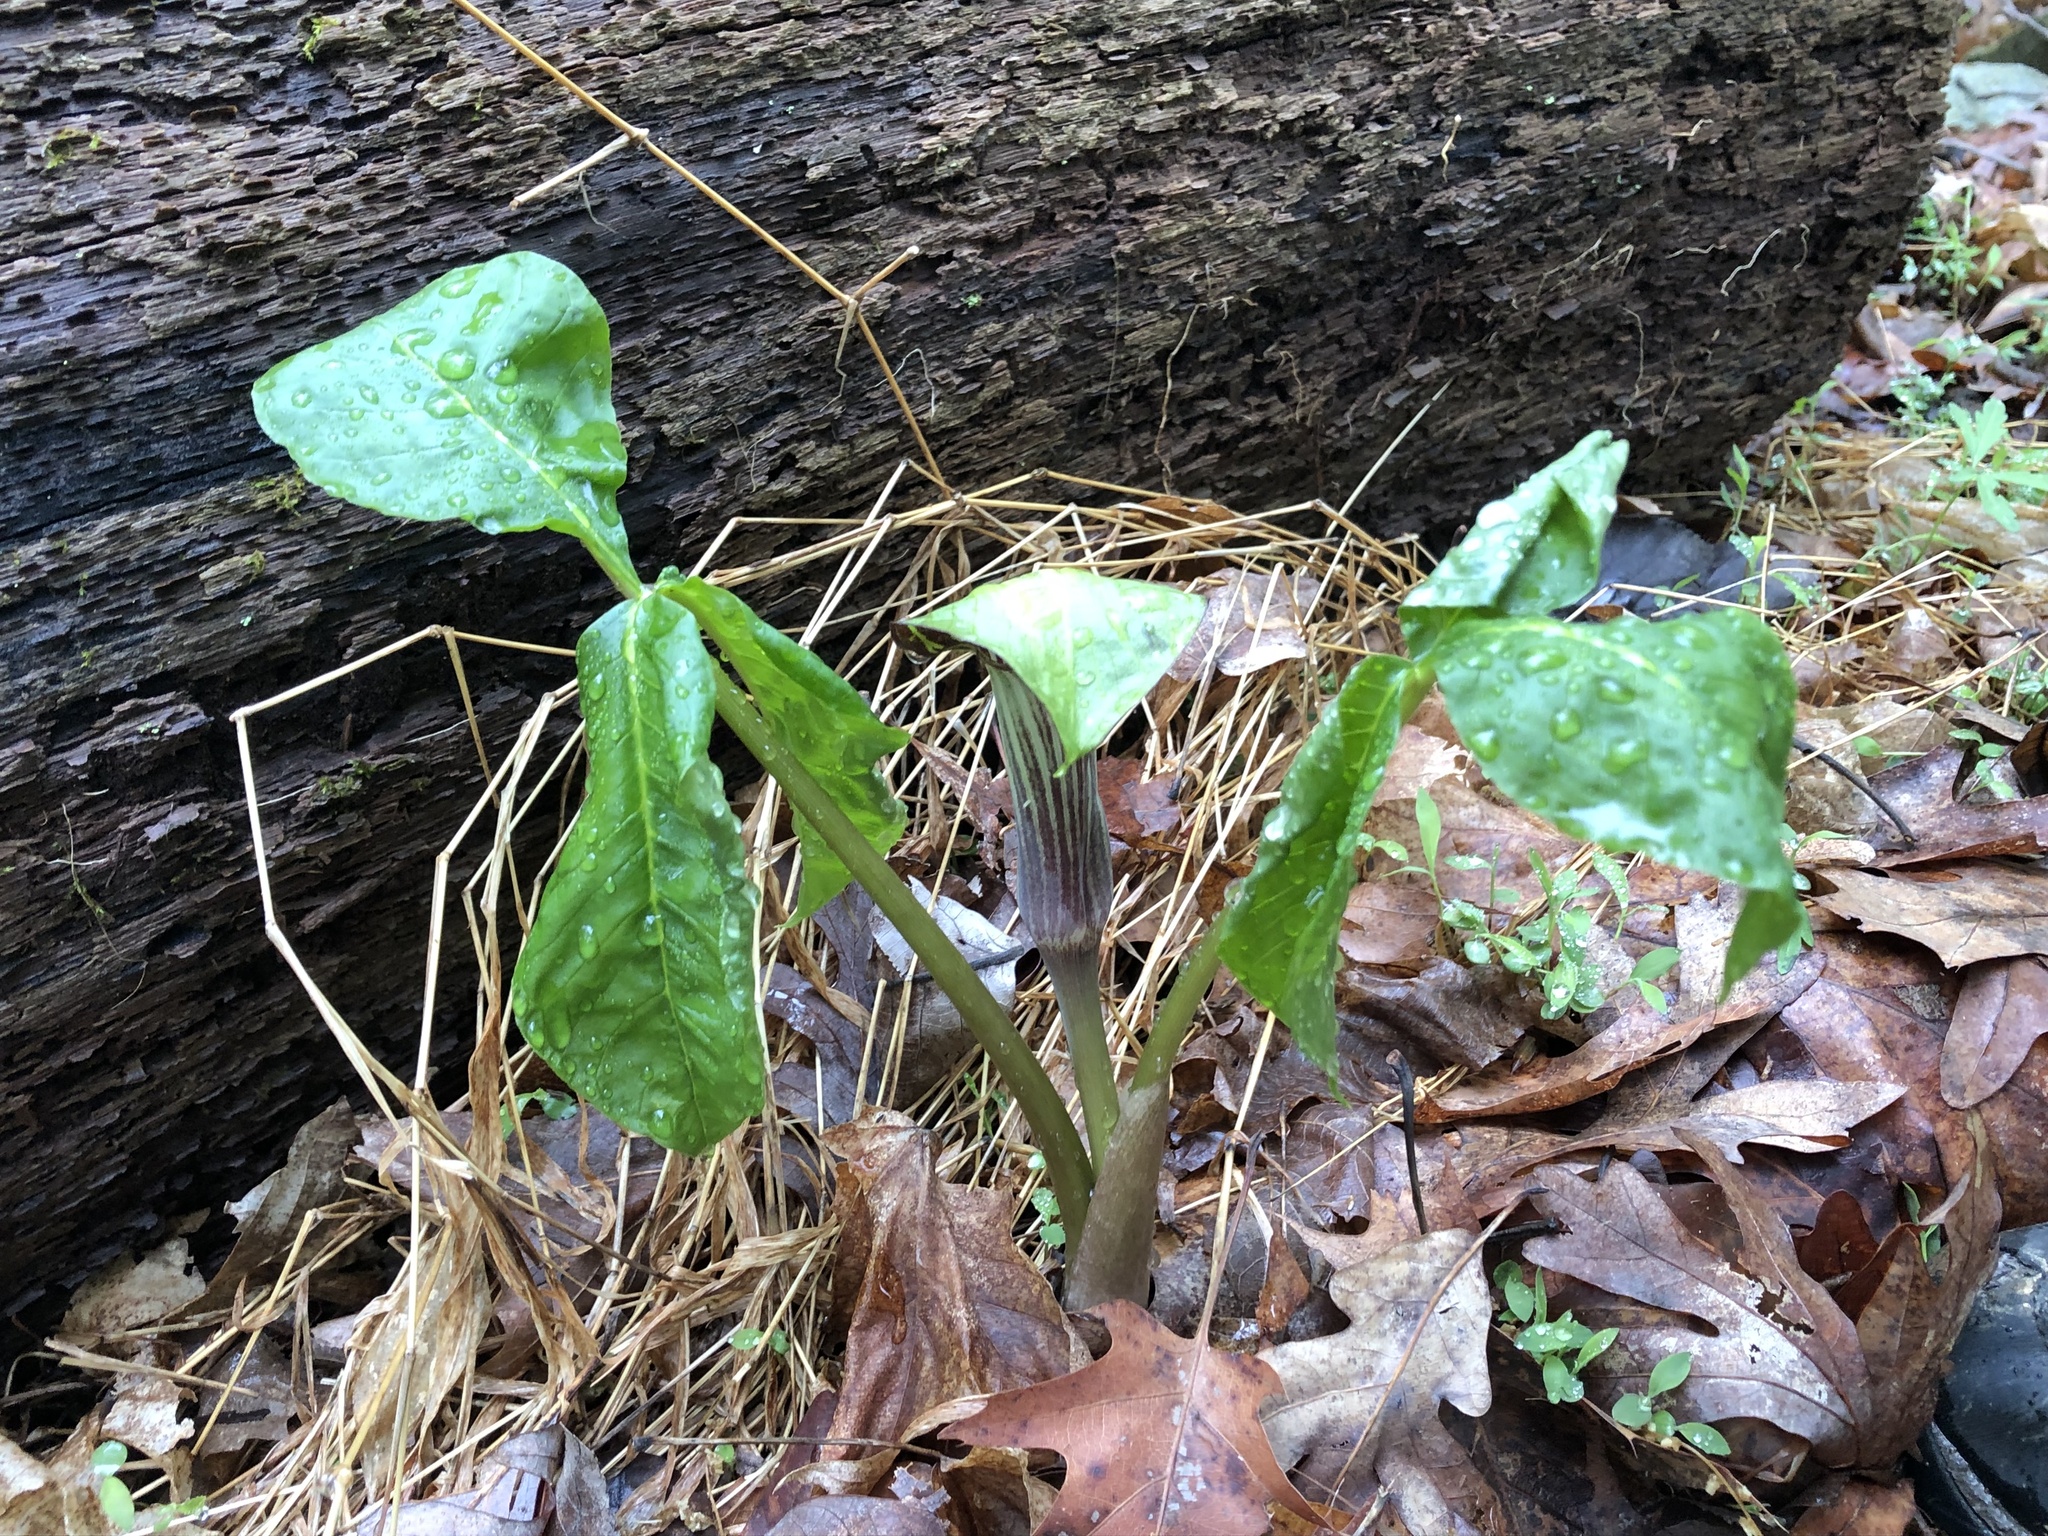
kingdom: Plantae
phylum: Tracheophyta
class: Liliopsida
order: Alismatales
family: Araceae
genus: Arisaema
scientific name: Arisaema triphyllum
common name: Jack-in-the-pulpit
